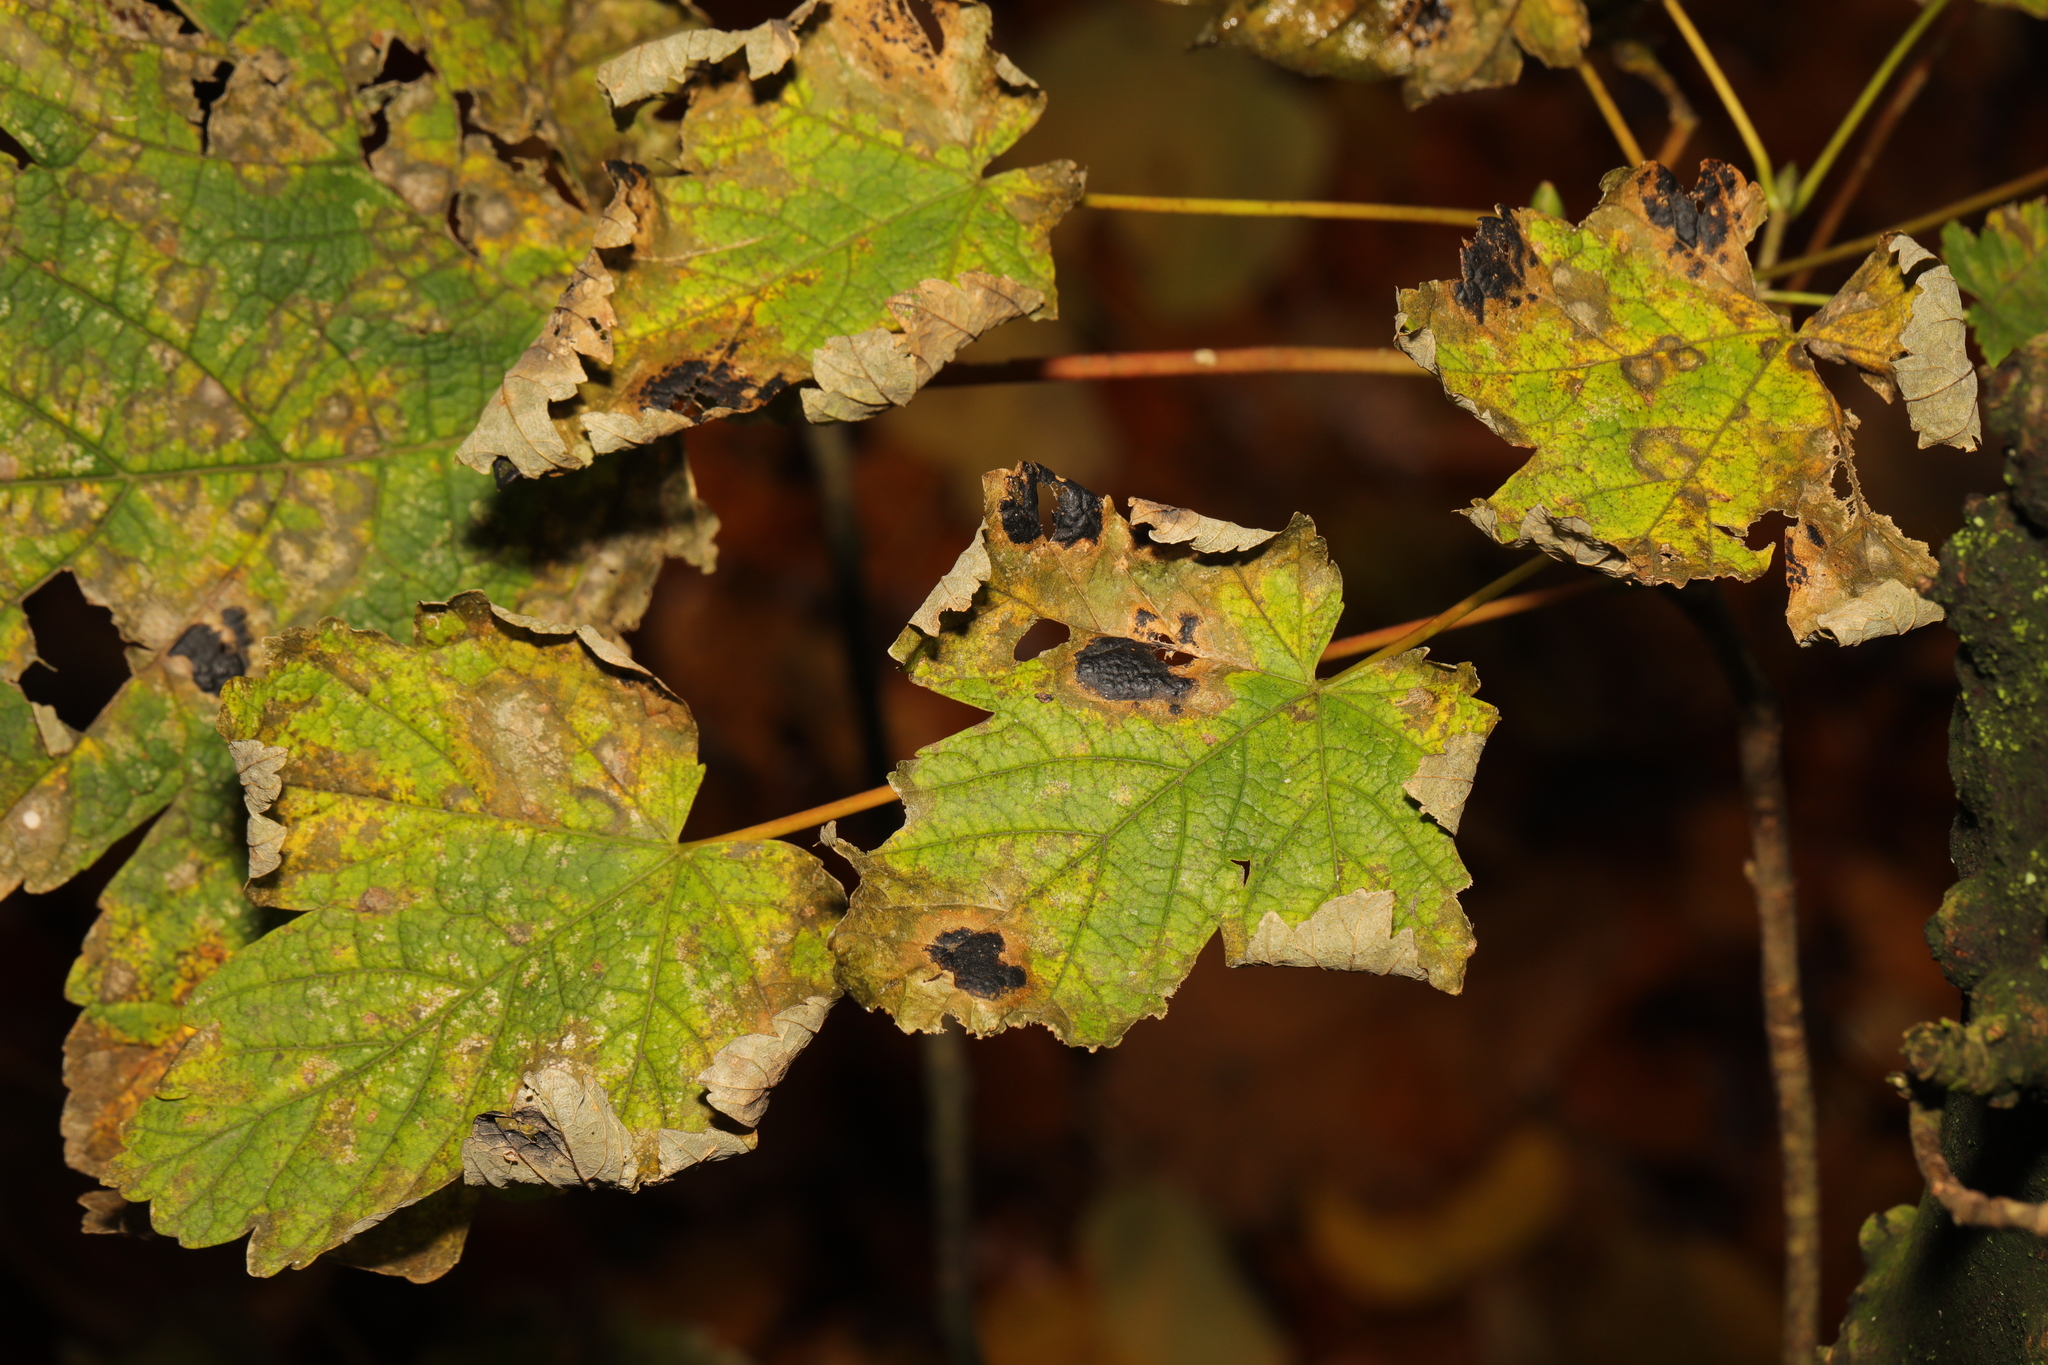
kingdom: Plantae
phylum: Tracheophyta
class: Magnoliopsida
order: Sapindales
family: Sapindaceae
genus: Acer
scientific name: Acer pseudoplatanus
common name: Sycamore
